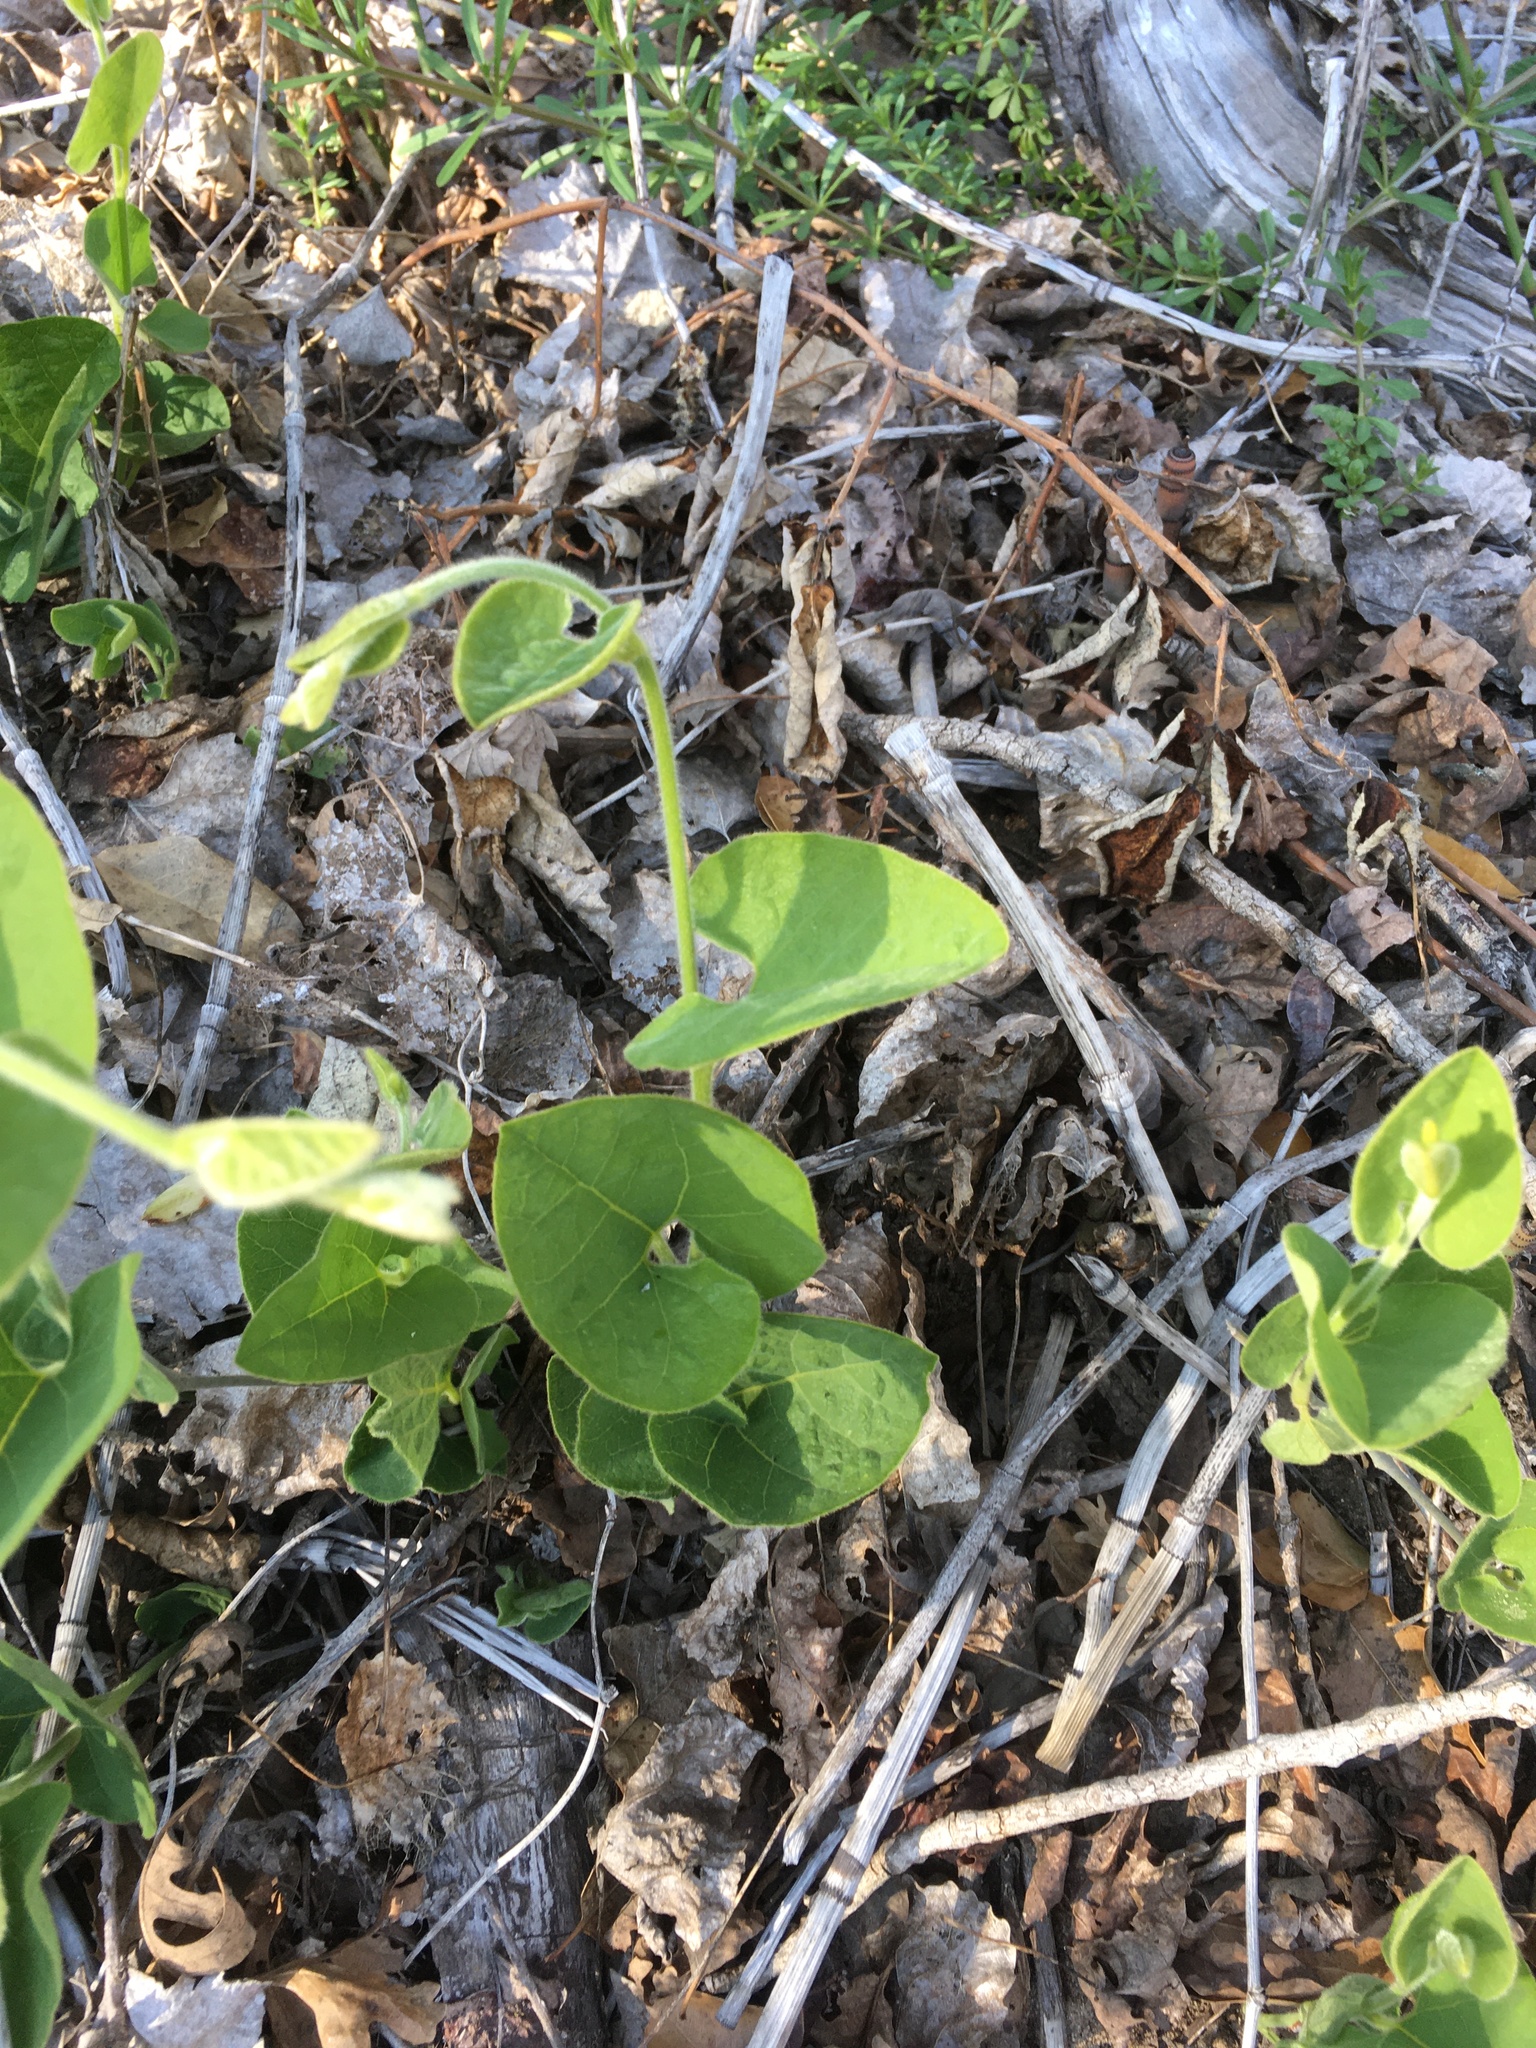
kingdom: Plantae
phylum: Tracheophyta
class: Magnoliopsida
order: Piperales
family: Aristolochiaceae
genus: Isotrema
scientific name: Isotrema californicum
